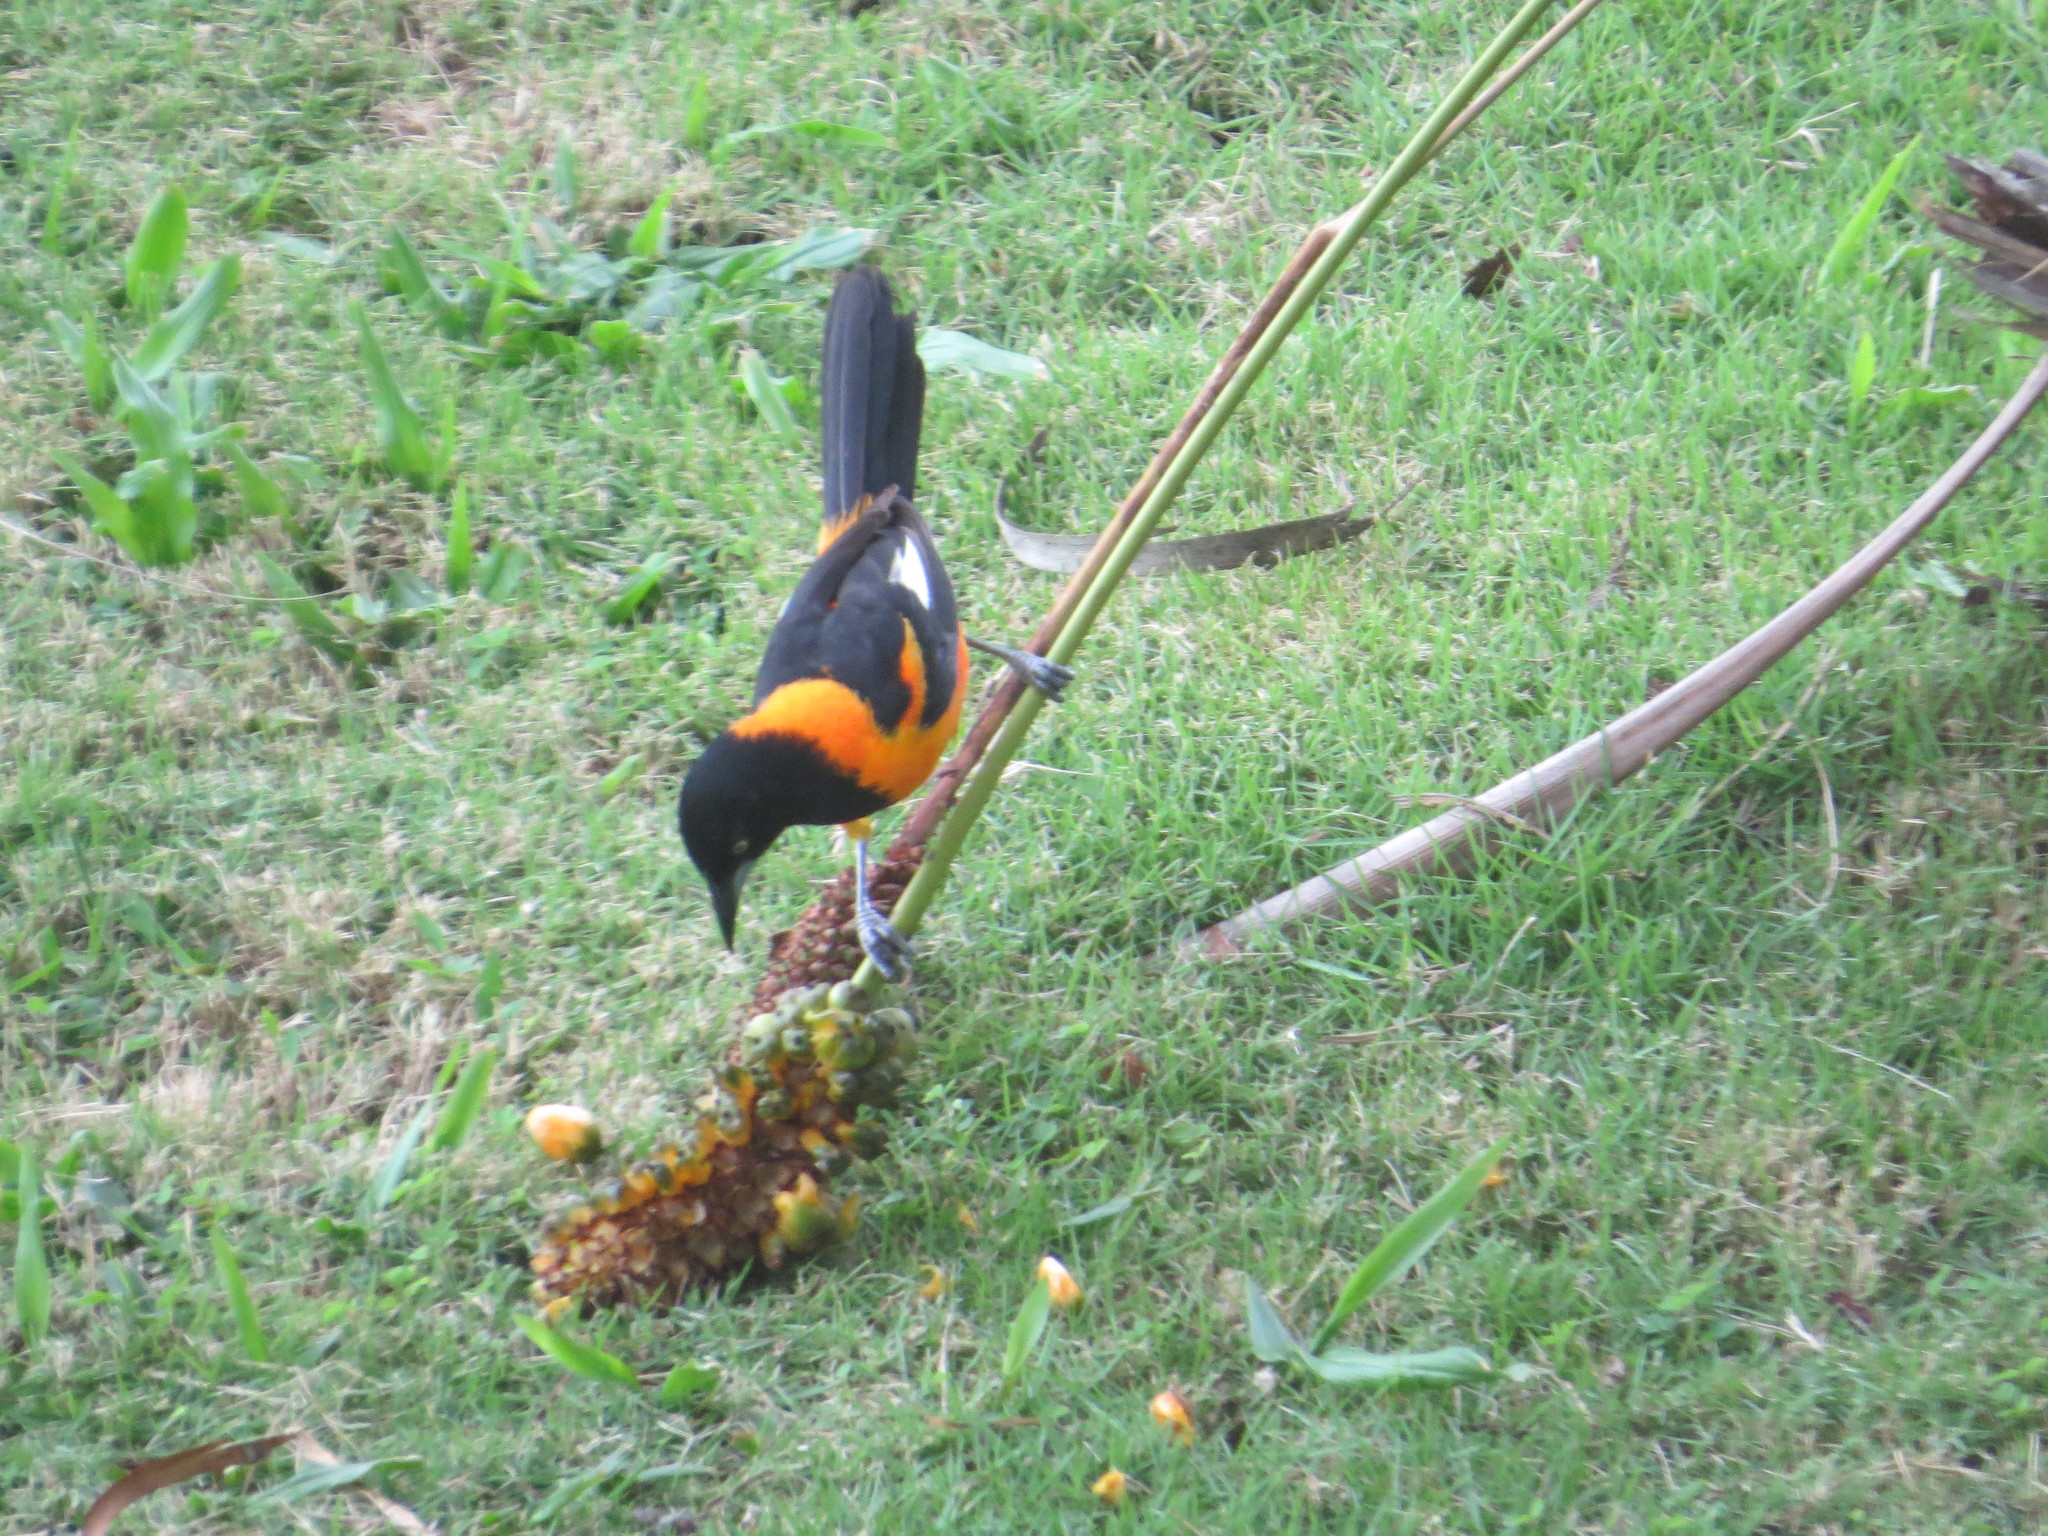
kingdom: Animalia
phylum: Chordata
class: Aves
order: Passeriformes
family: Icteridae
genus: Icterus
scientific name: Icterus icterus
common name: Venezuelan troupial
